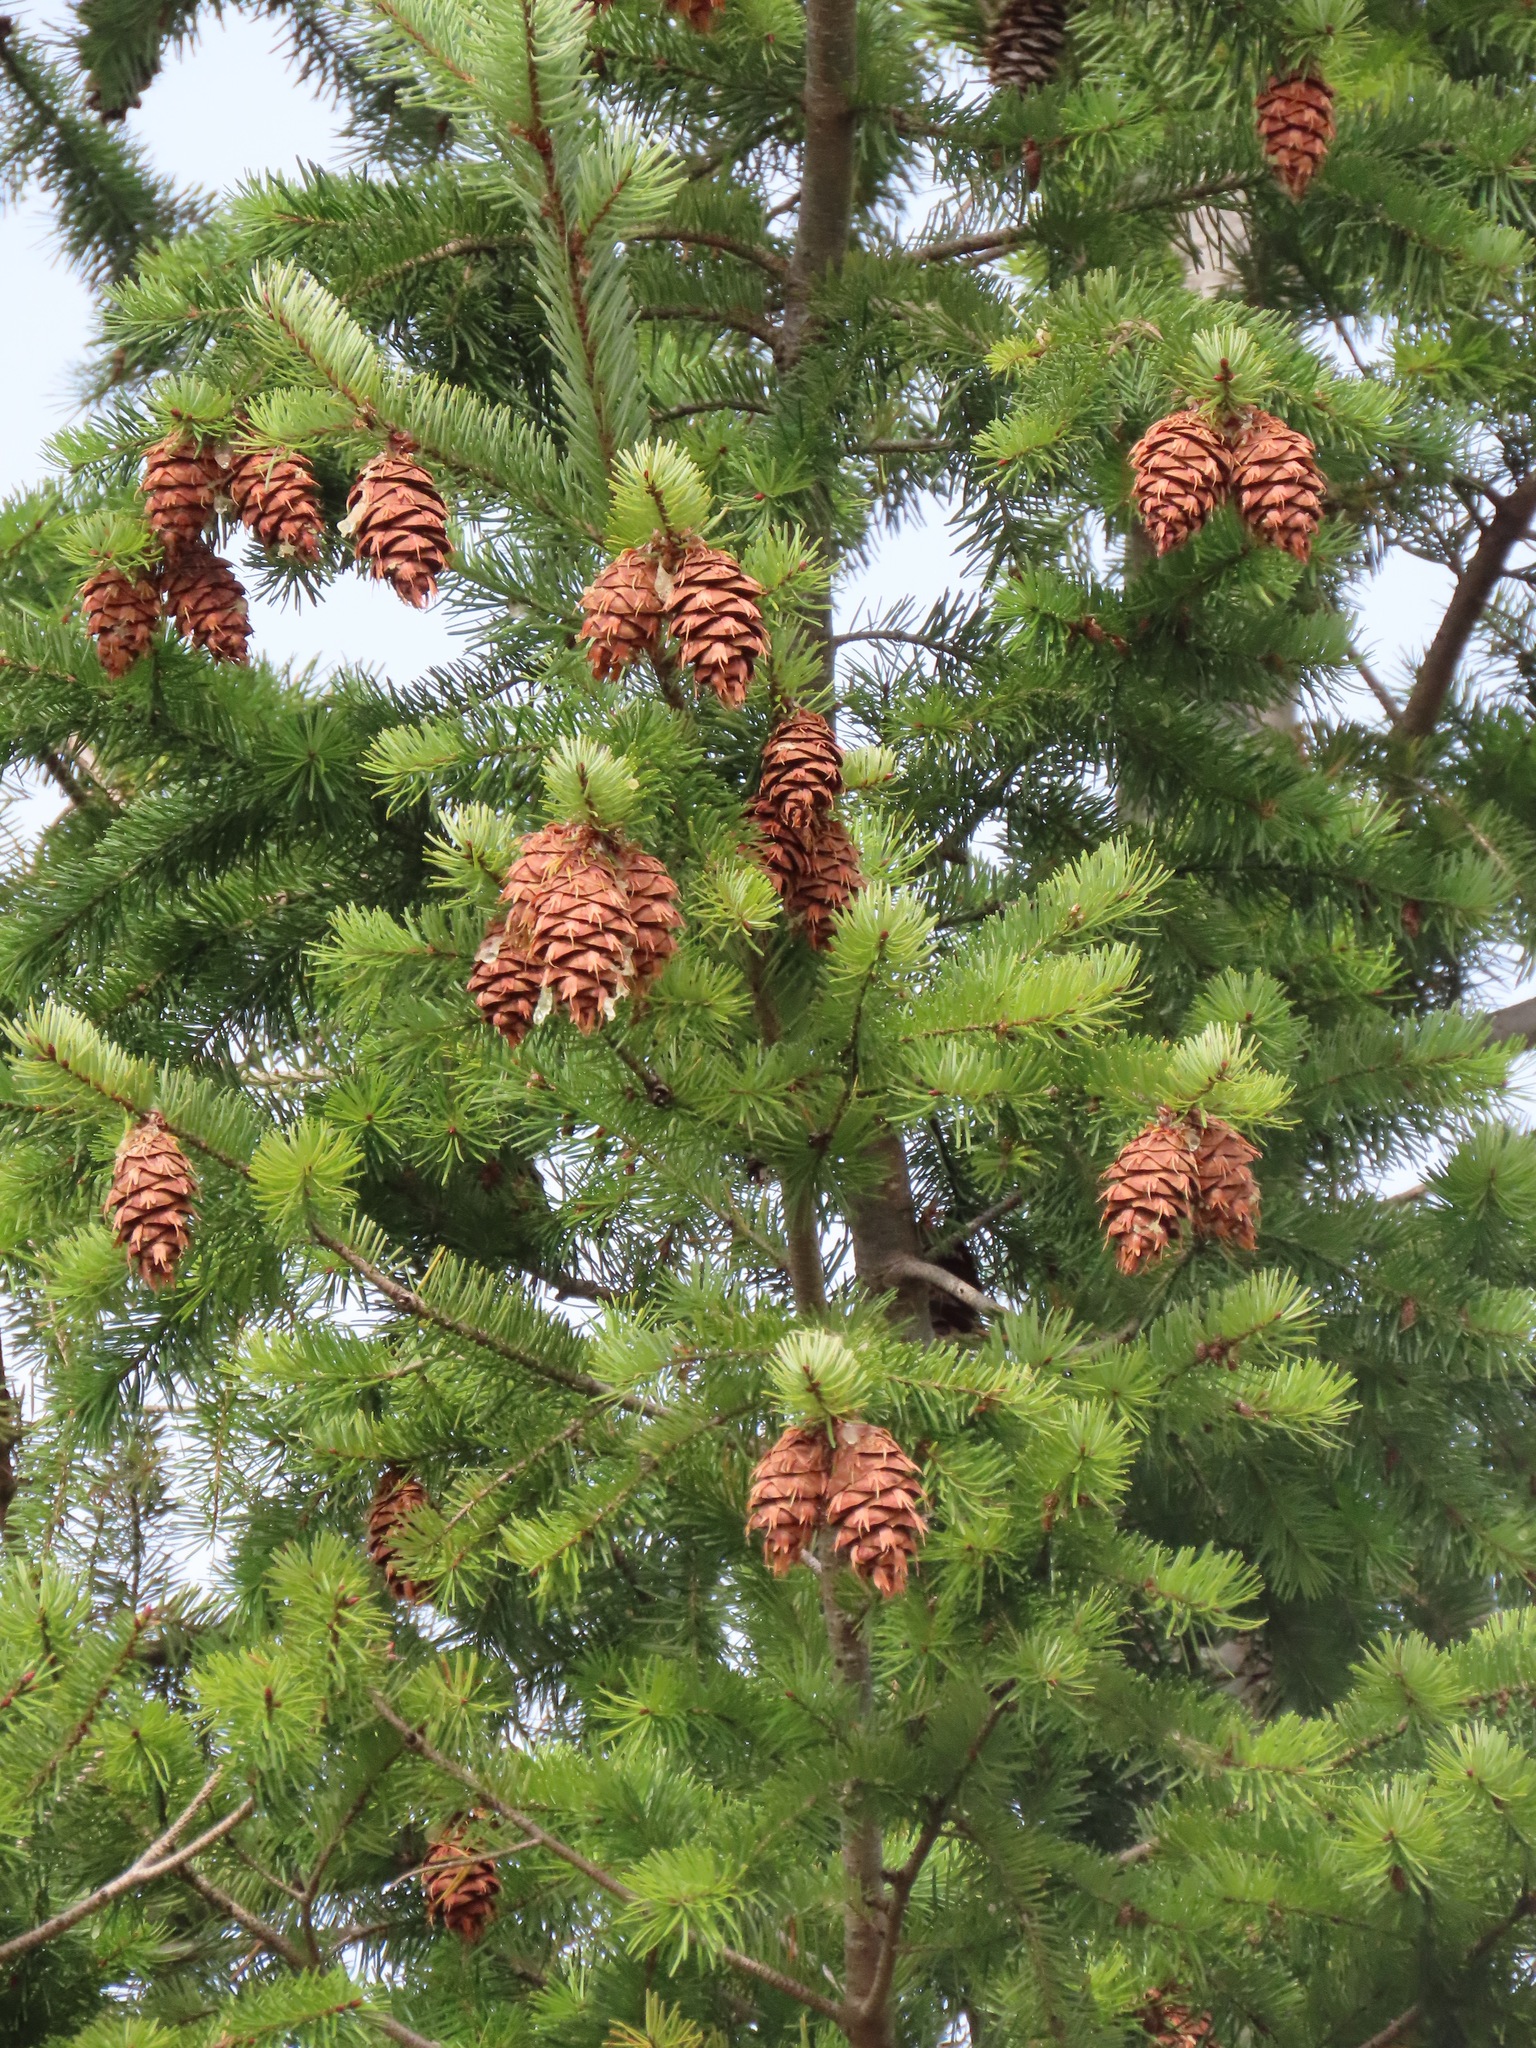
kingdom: Plantae
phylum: Tracheophyta
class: Pinopsida
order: Pinales
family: Pinaceae
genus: Pseudotsuga
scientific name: Pseudotsuga menziesii
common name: Douglas fir
